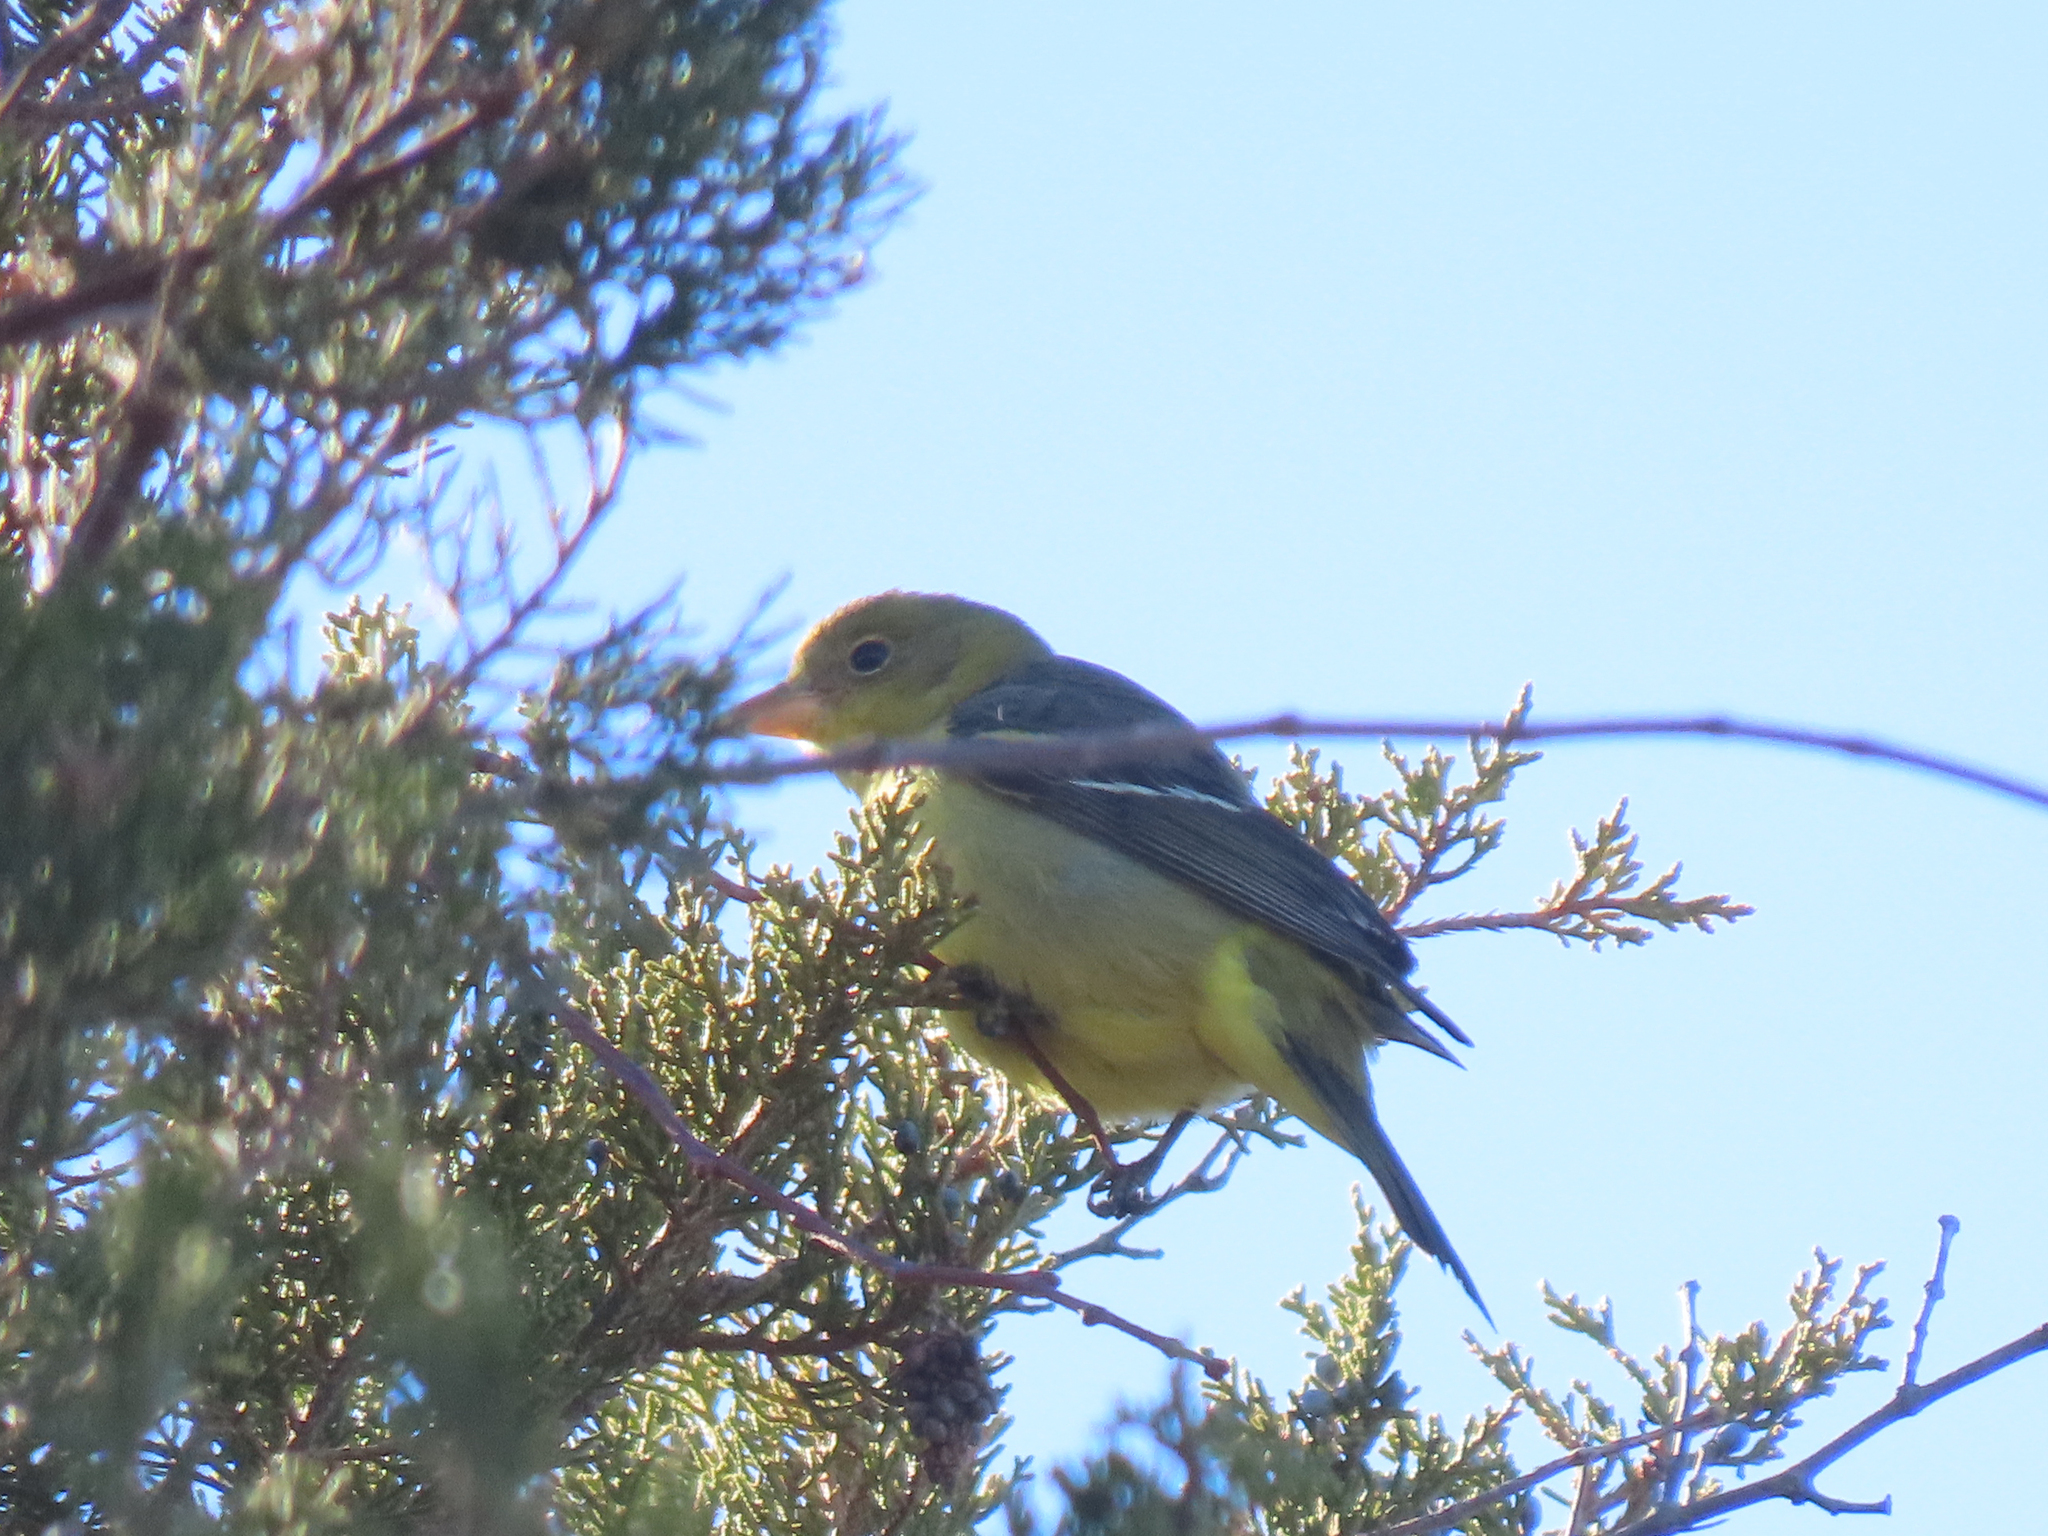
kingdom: Animalia
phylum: Chordata
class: Aves
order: Passeriformes
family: Cardinalidae
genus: Piranga
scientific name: Piranga ludoviciana
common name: Western tanager
